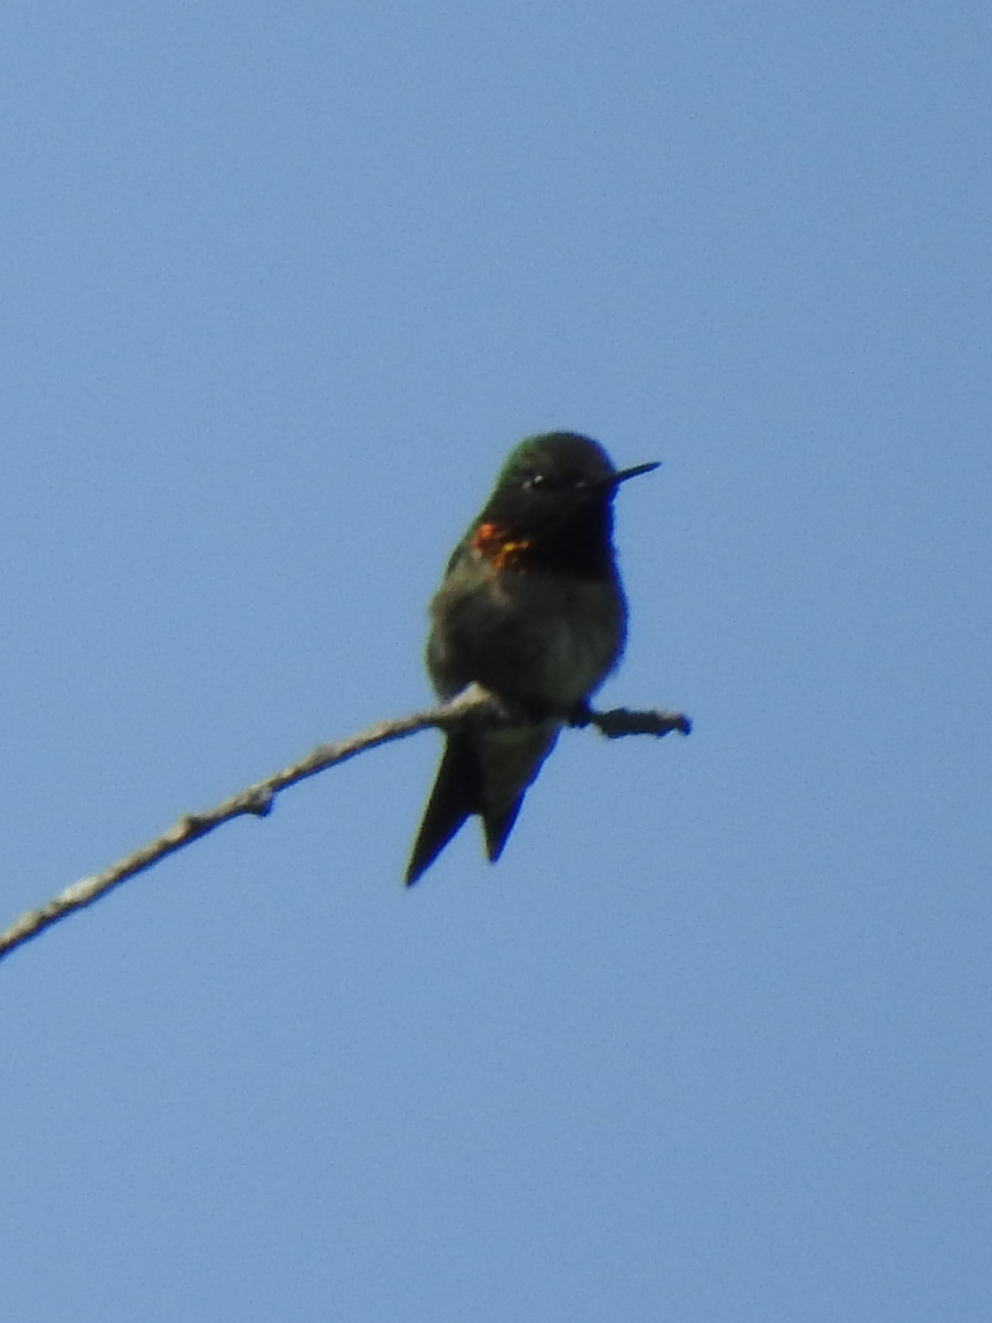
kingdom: Animalia
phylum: Chordata
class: Aves
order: Apodiformes
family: Trochilidae
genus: Archilochus
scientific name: Archilochus colubris
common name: Ruby-throated hummingbird
